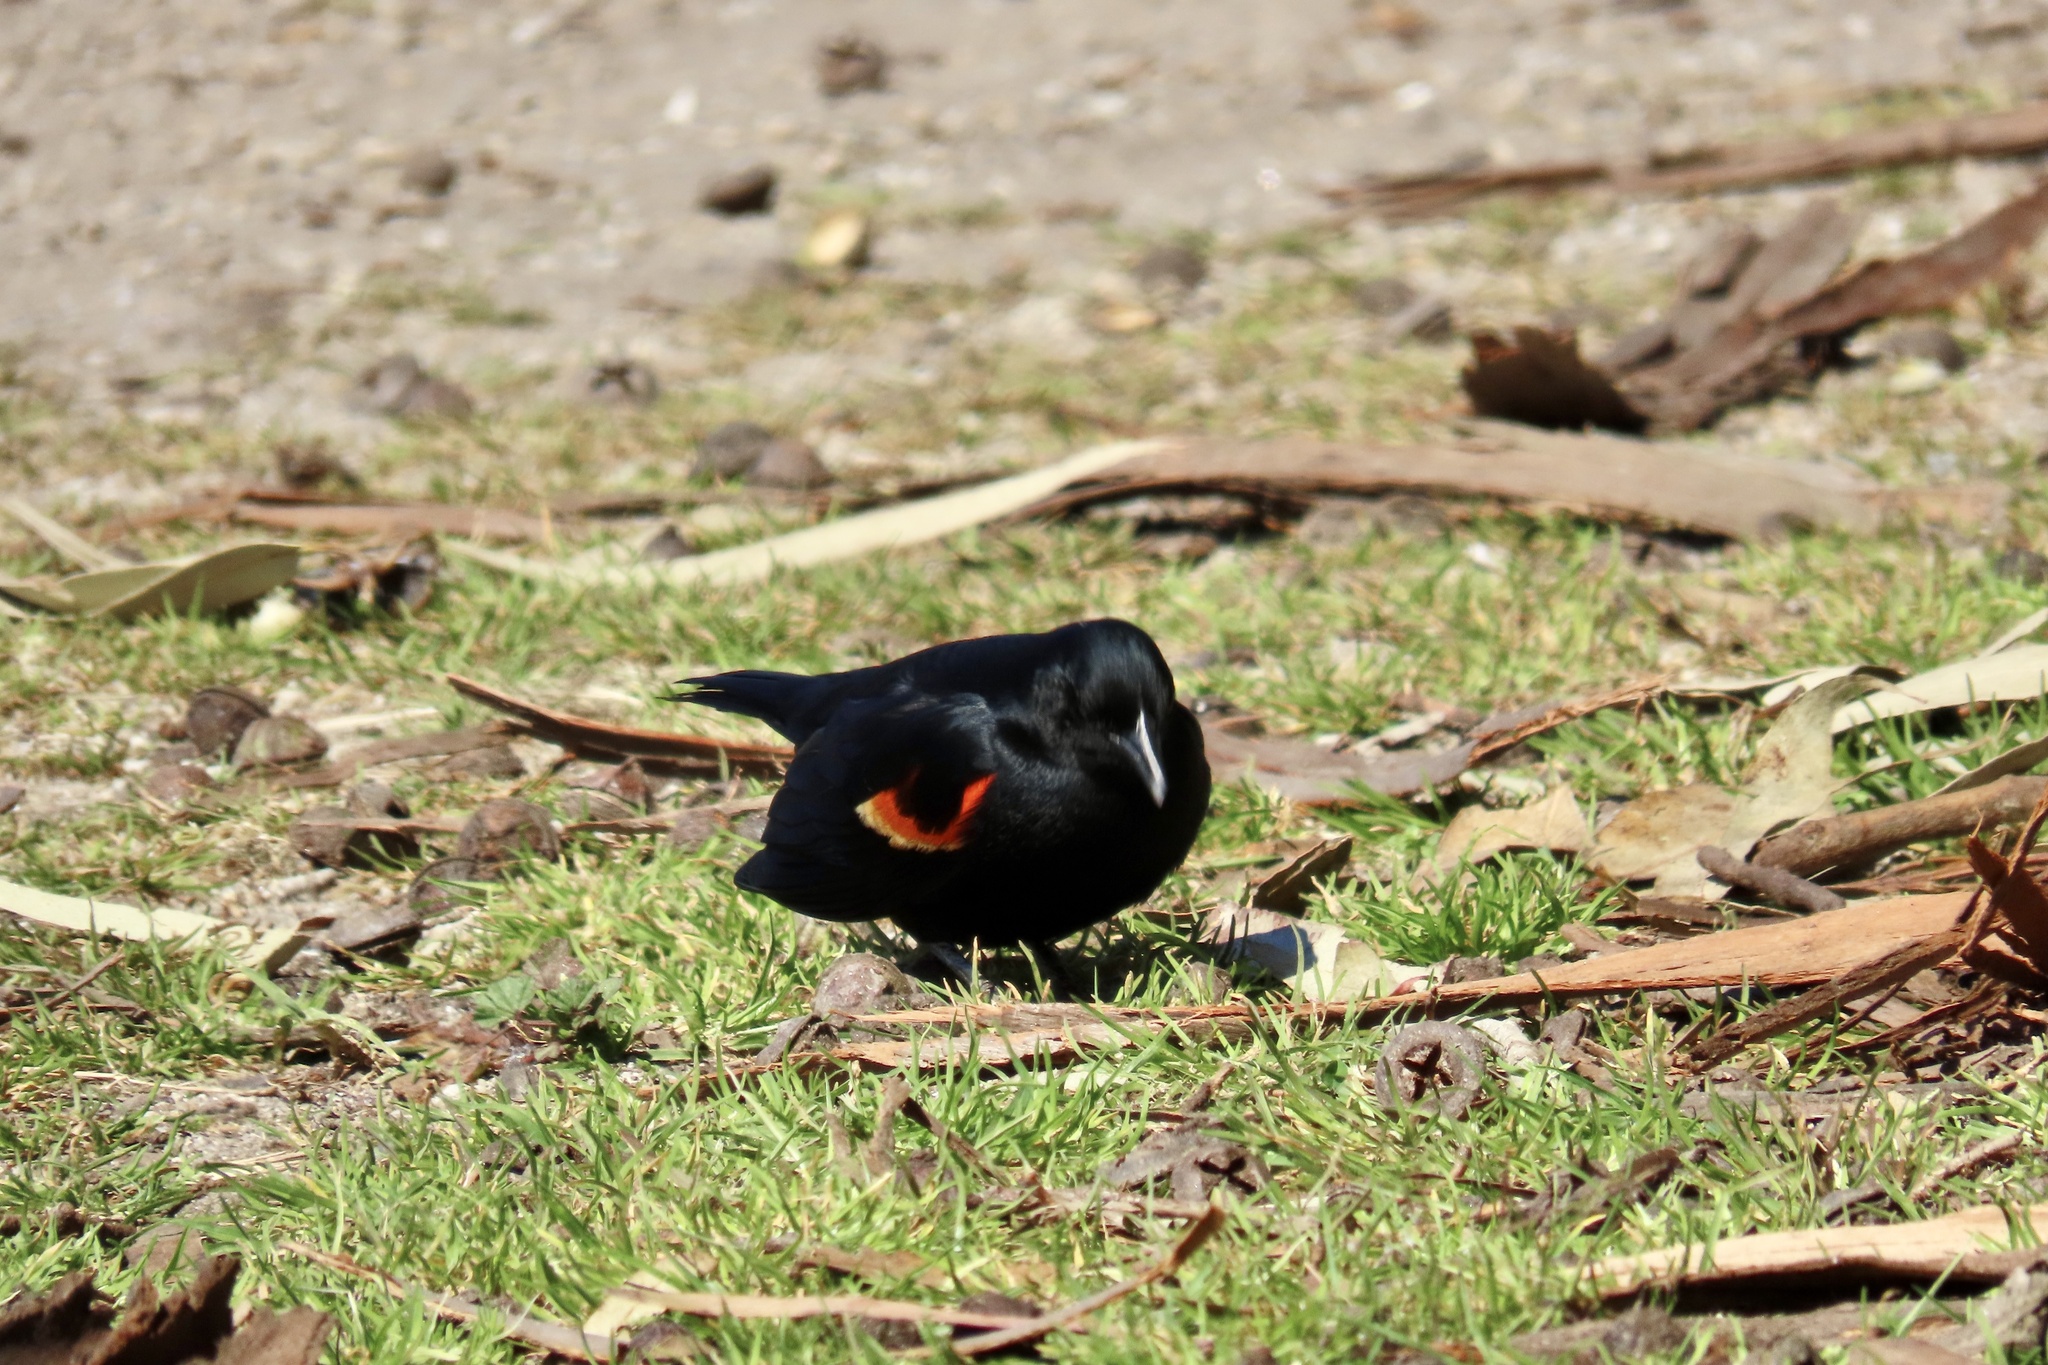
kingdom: Animalia
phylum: Chordata
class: Aves
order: Passeriformes
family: Icteridae
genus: Agelaius
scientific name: Agelaius phoeniceus
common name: Red-winged blackbird
